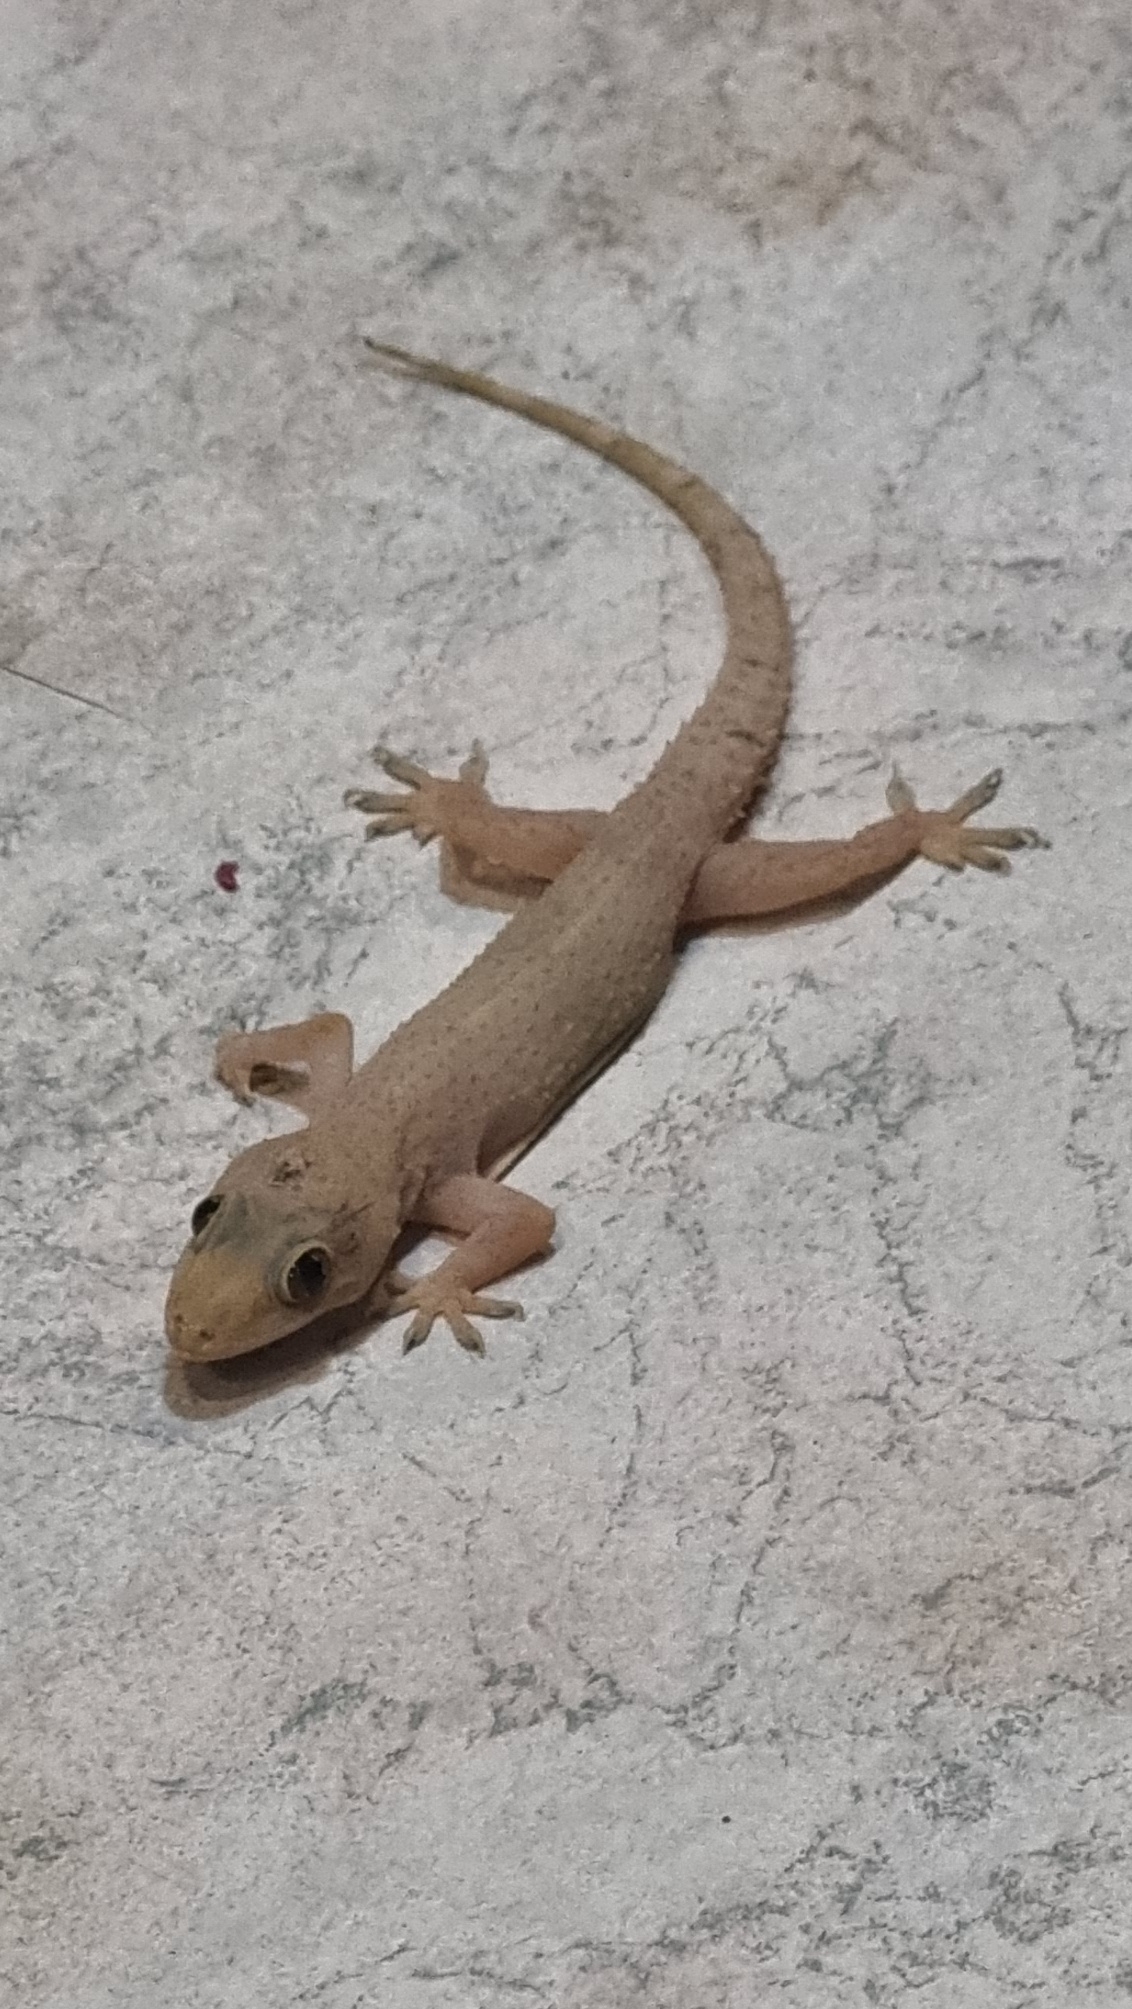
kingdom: Animalia
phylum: Chordata
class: Squamata
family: Gekkonidae
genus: Hemidactylus
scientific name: Hemidactylus mabouia
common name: House gecko
